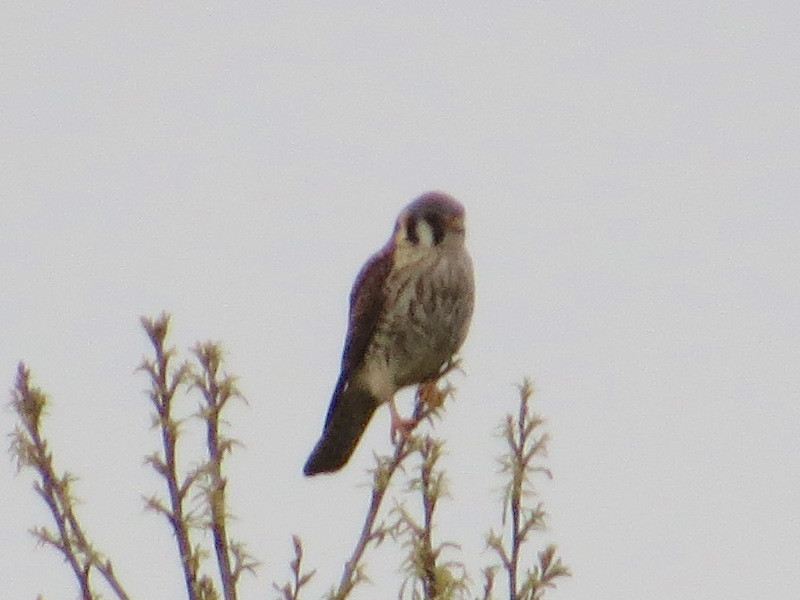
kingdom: Animalia
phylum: Chordata
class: Aves
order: Falconiformes
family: Falconidae
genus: Falco
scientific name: Falco sparverius
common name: American kestrel
